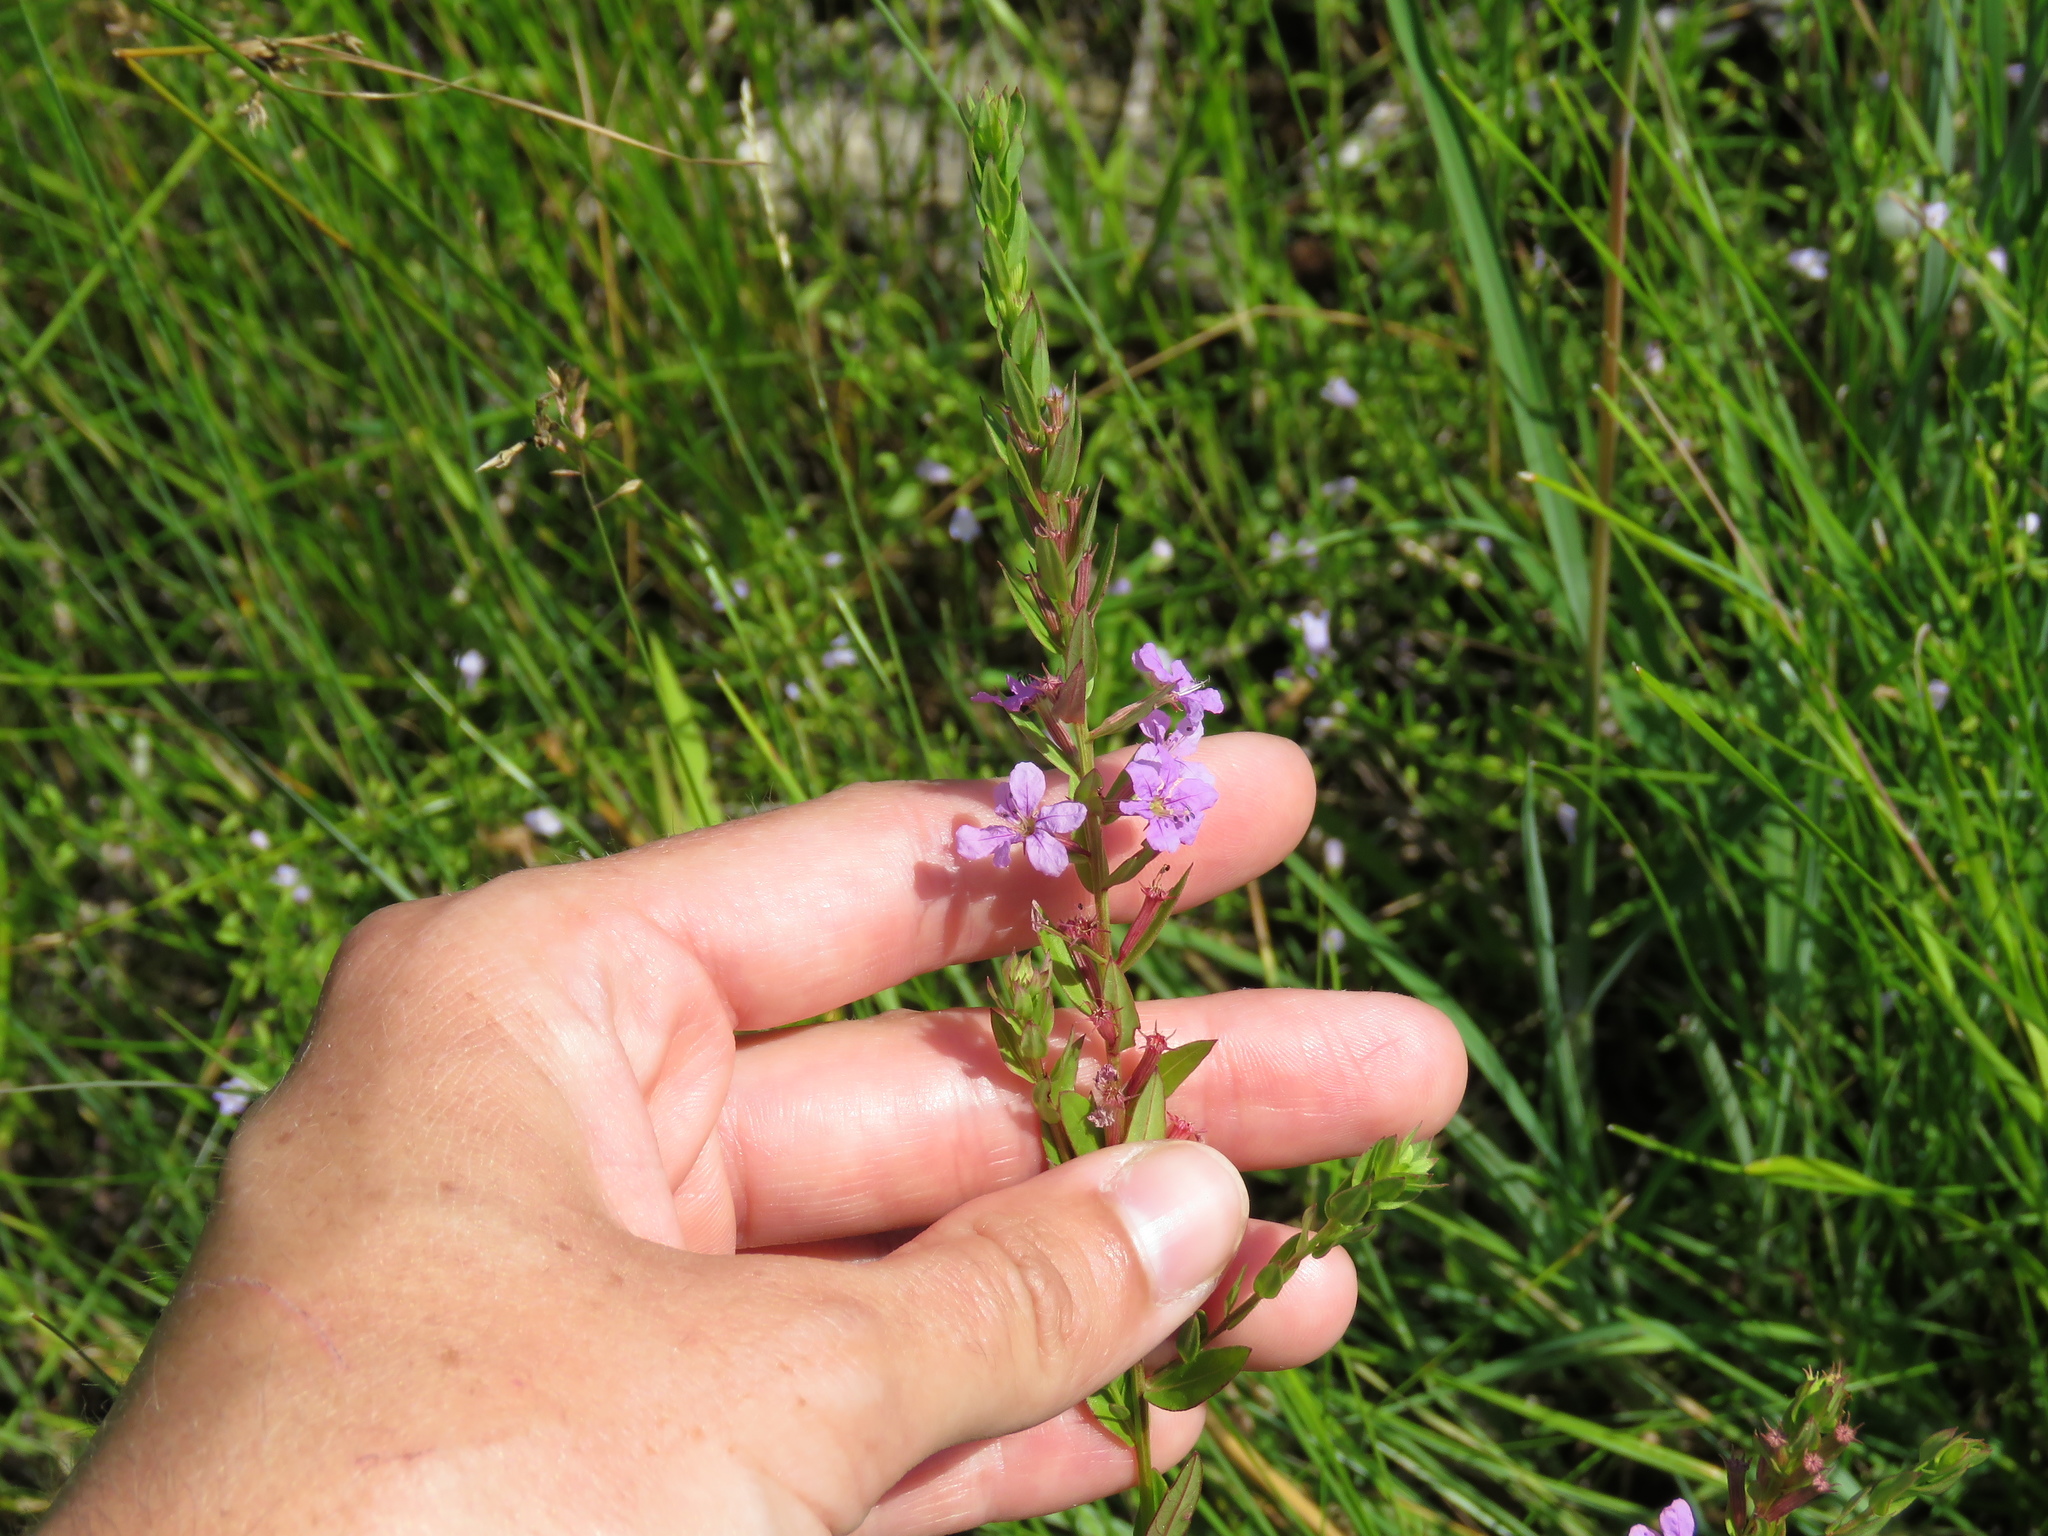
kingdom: Plantae
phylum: Tracheophyta
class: Magnoliopsida
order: Myrtales
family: Lythraceae
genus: Lythrum
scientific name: Lythrum alatum
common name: Winged loosestrife
